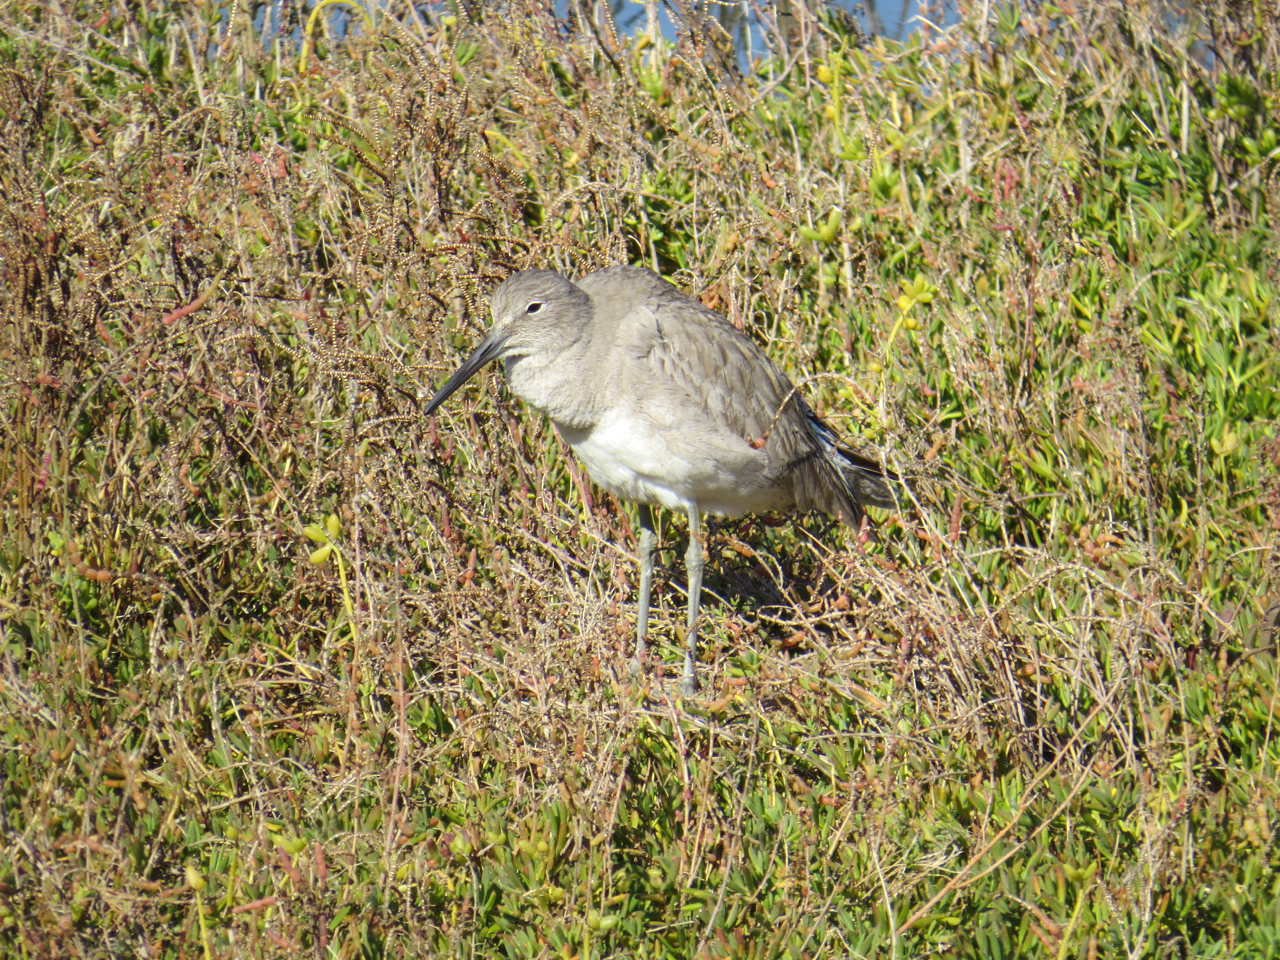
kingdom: Animalia
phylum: Chordata
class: Aves
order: Charadriiformes
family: Scolopacidae
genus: Tringa
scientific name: Tringa semipalmata
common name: Willet
